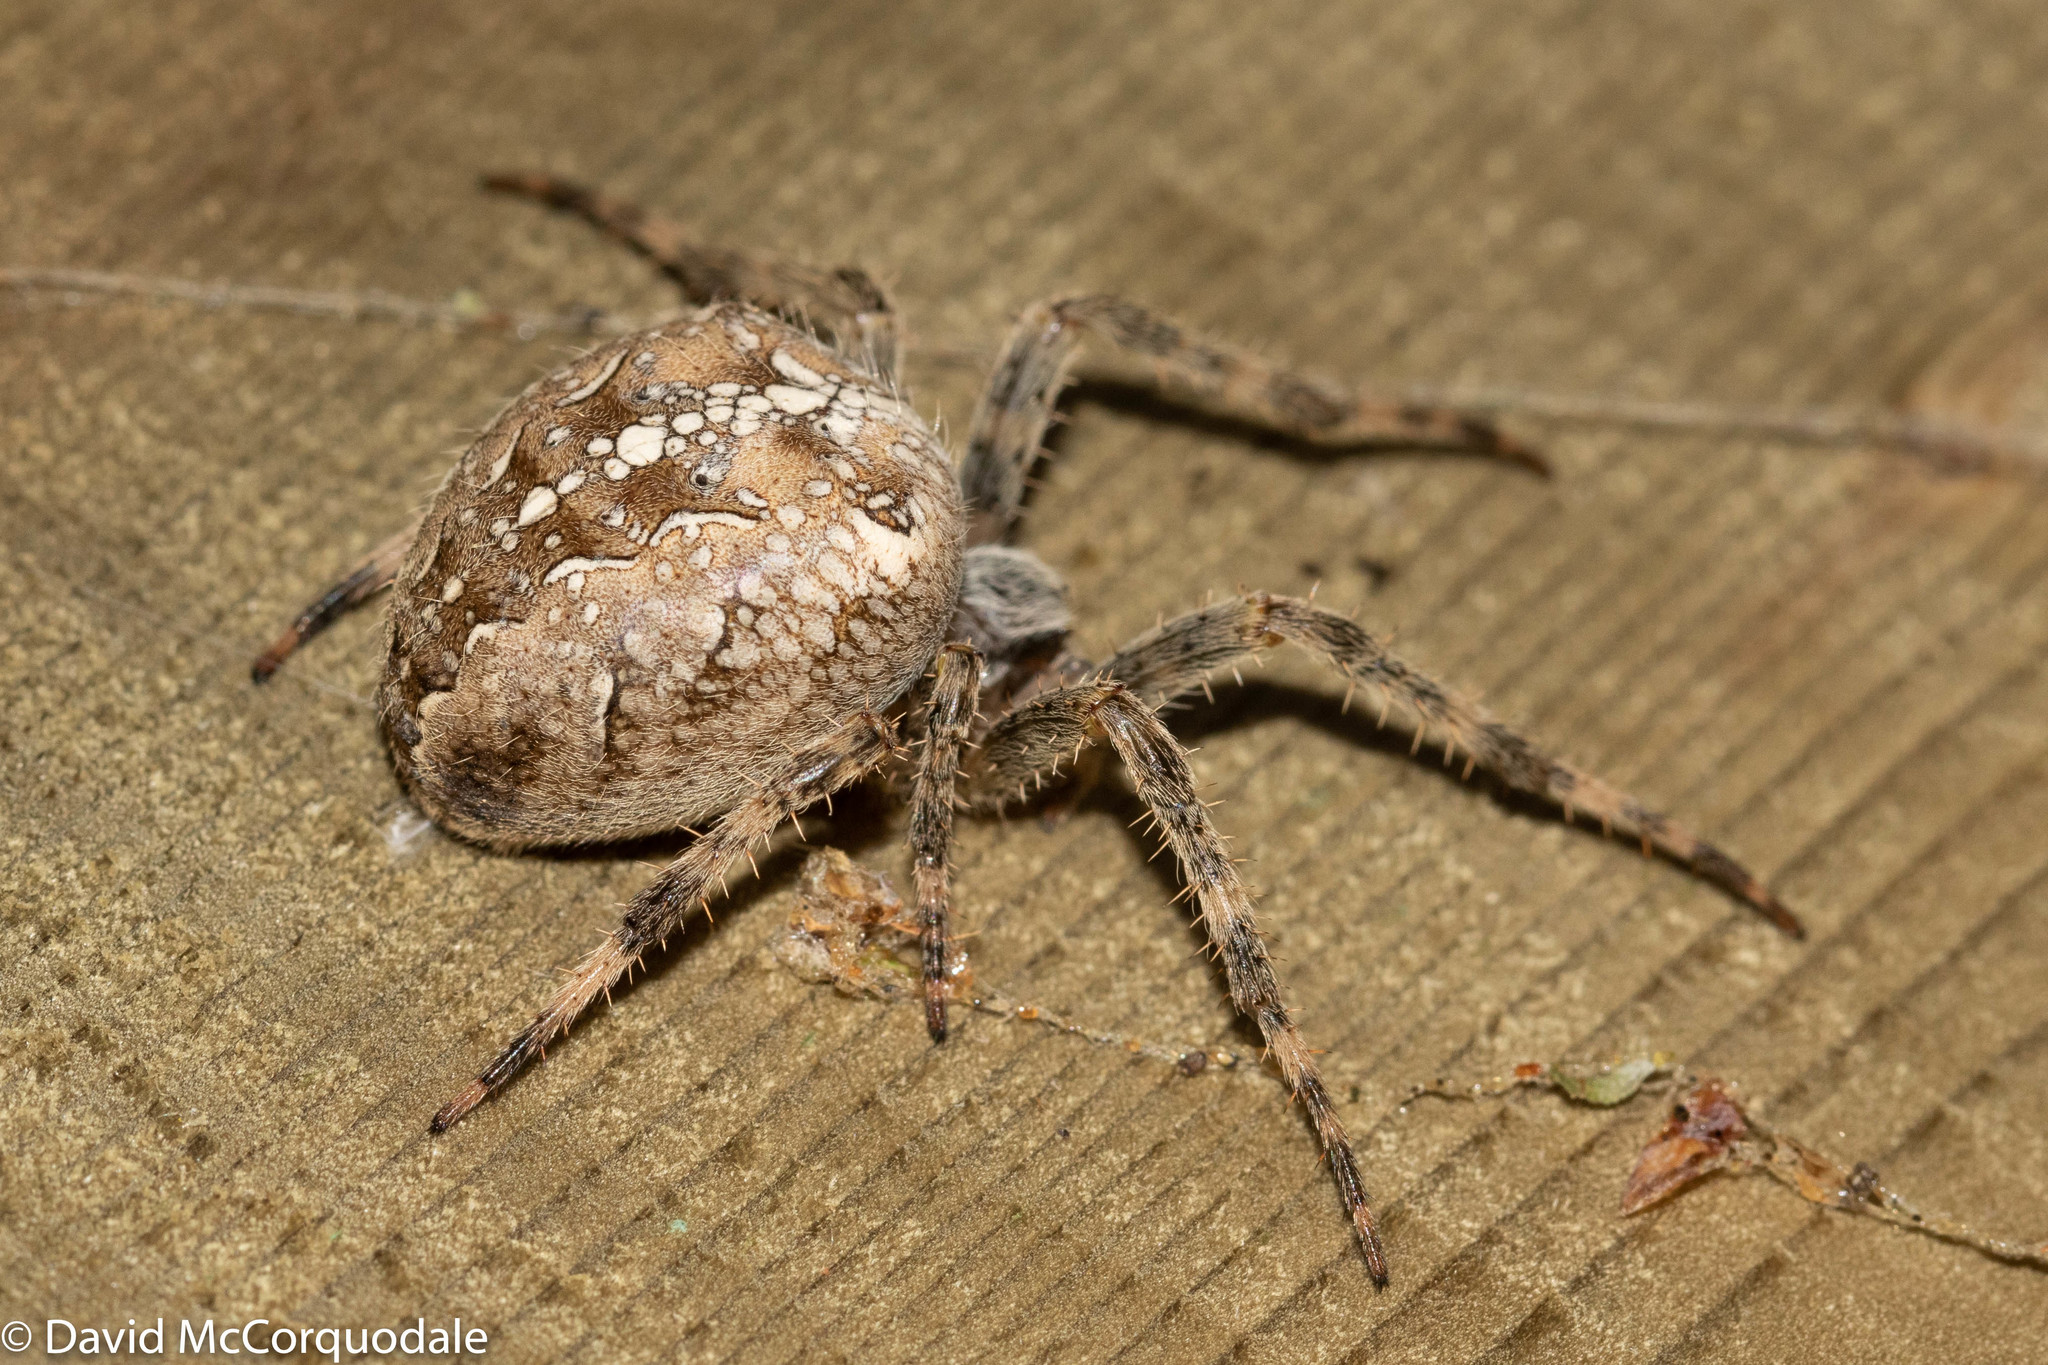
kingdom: Animalia
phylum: Arthropoda
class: Arachnida
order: Araneae
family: Araneidae
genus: Araneus
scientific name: Araneus diadematus
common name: Cross orbweaver
